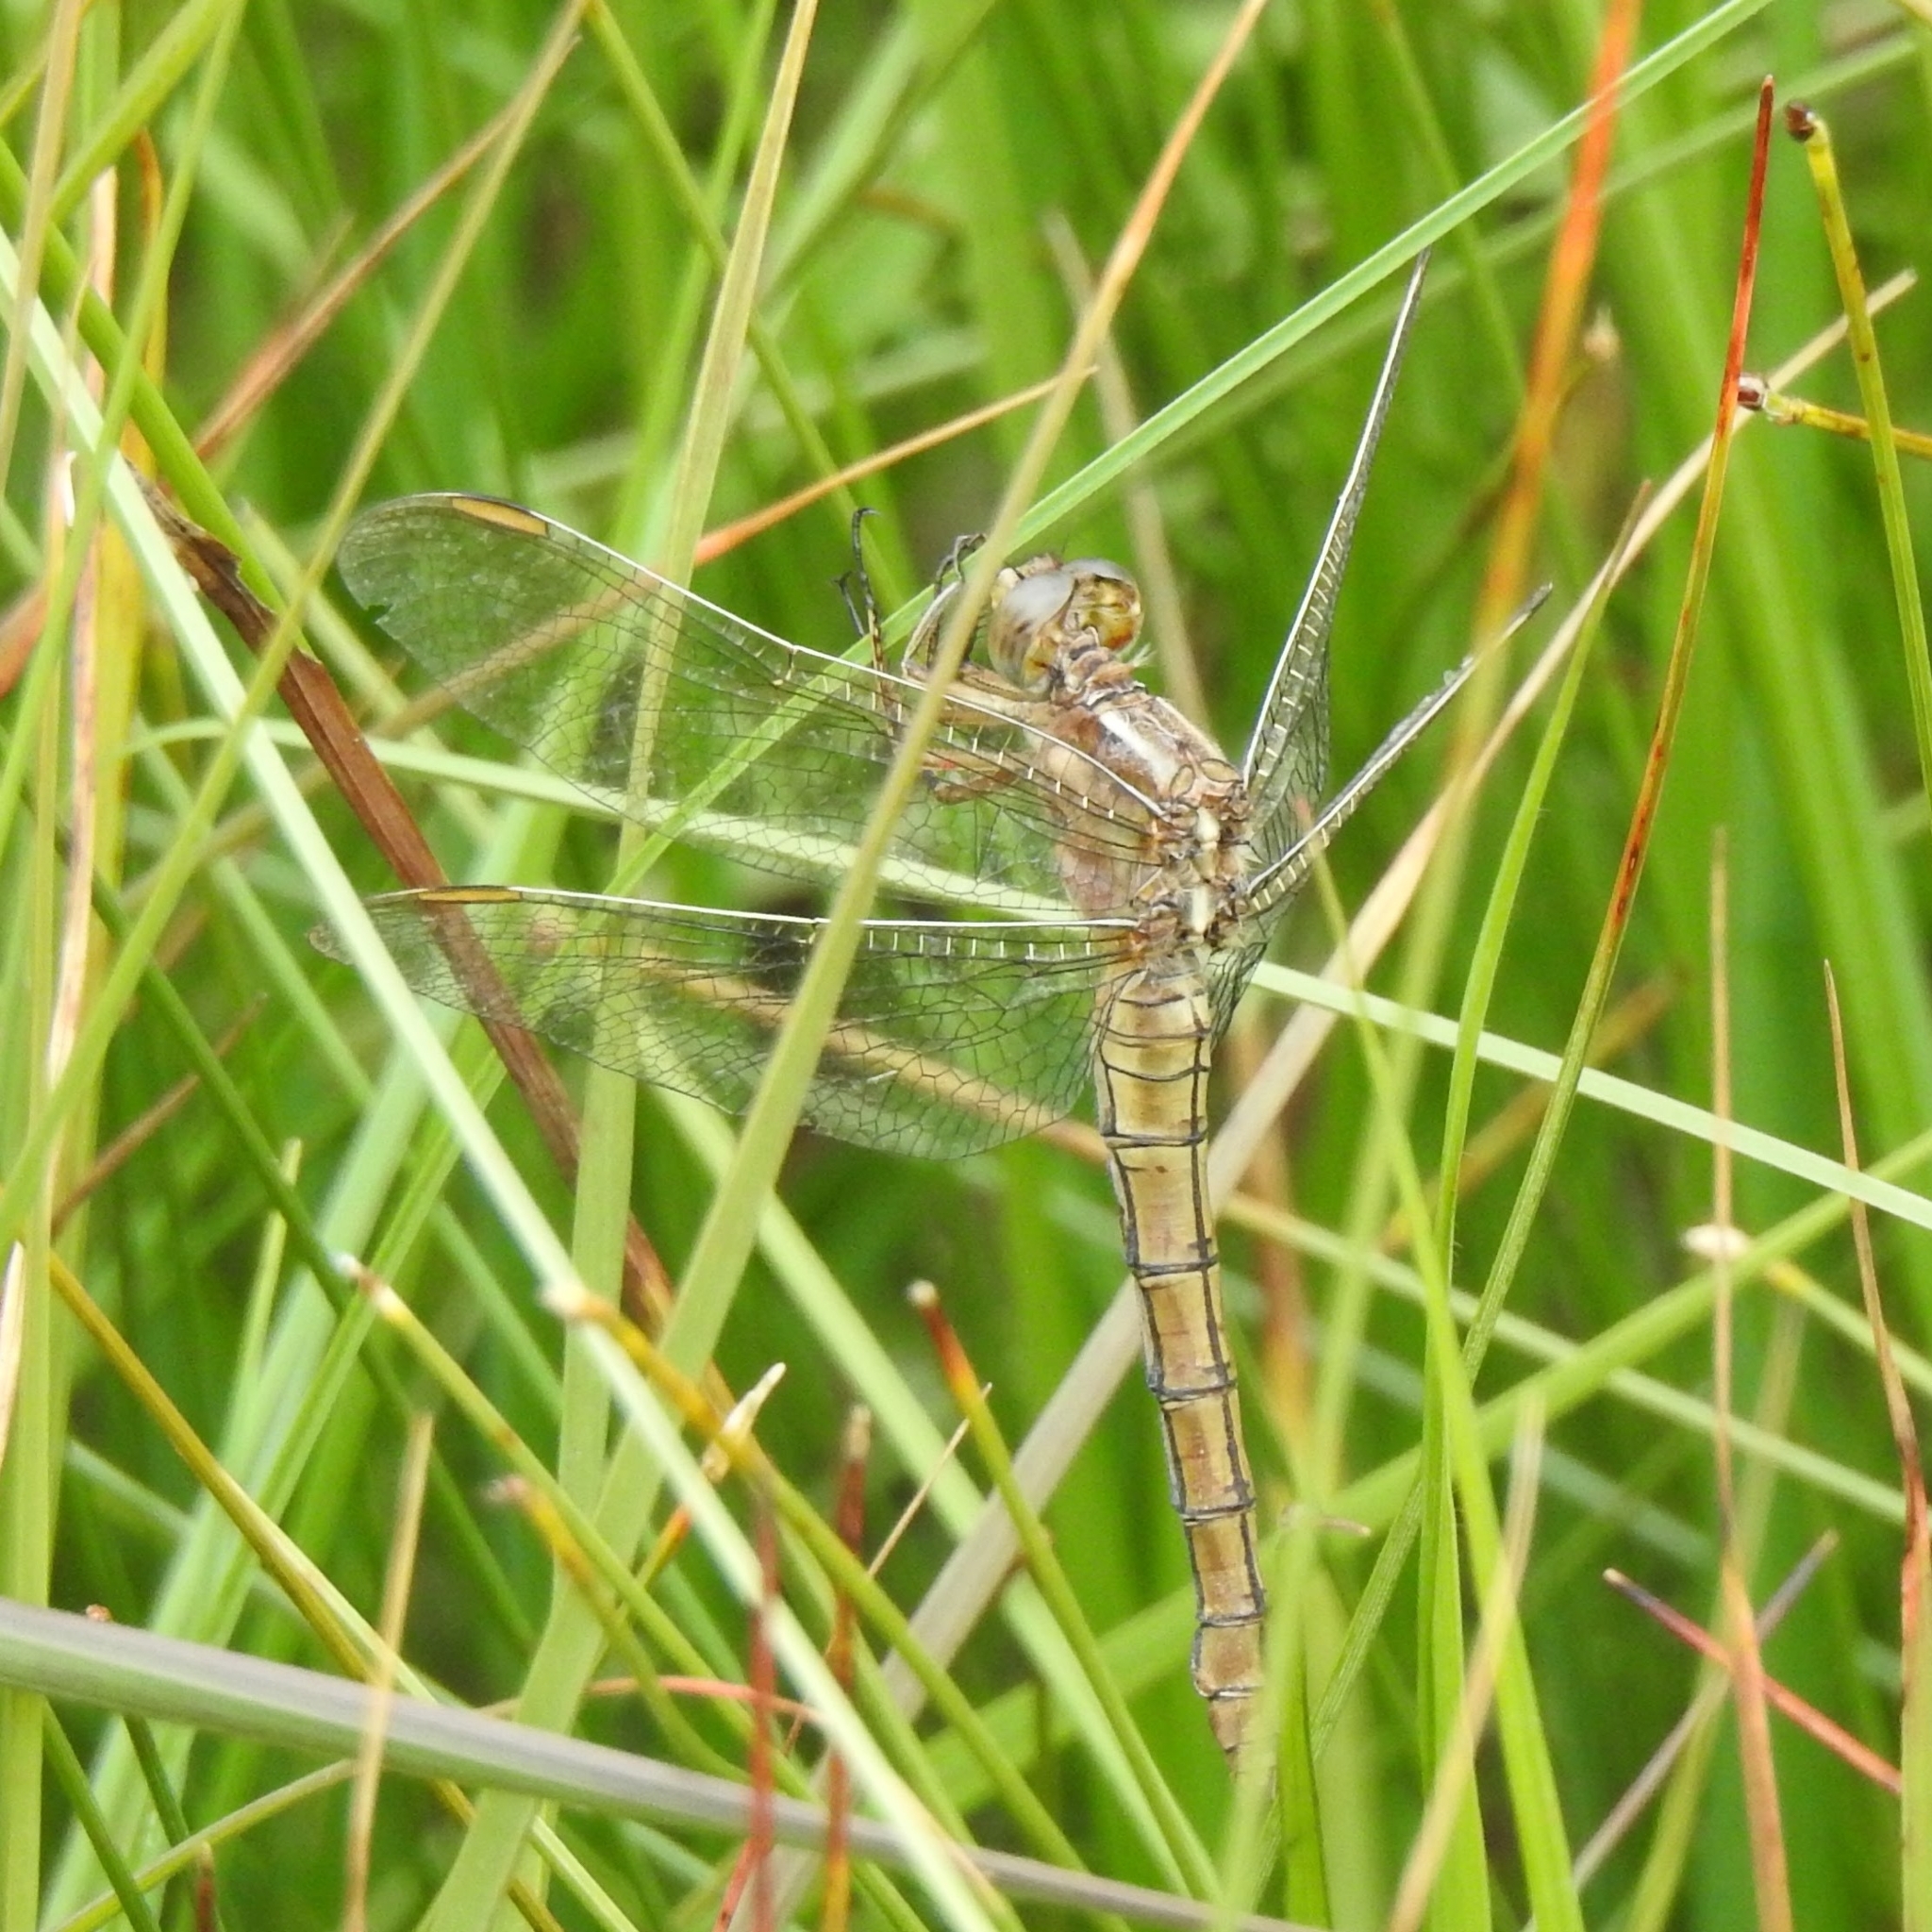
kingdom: Animalia
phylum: Arthropoda
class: Insecta
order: Odonata
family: Libellulidae
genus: Orthetrum
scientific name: Orthetrum coerulescens
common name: Keeled skimmer
